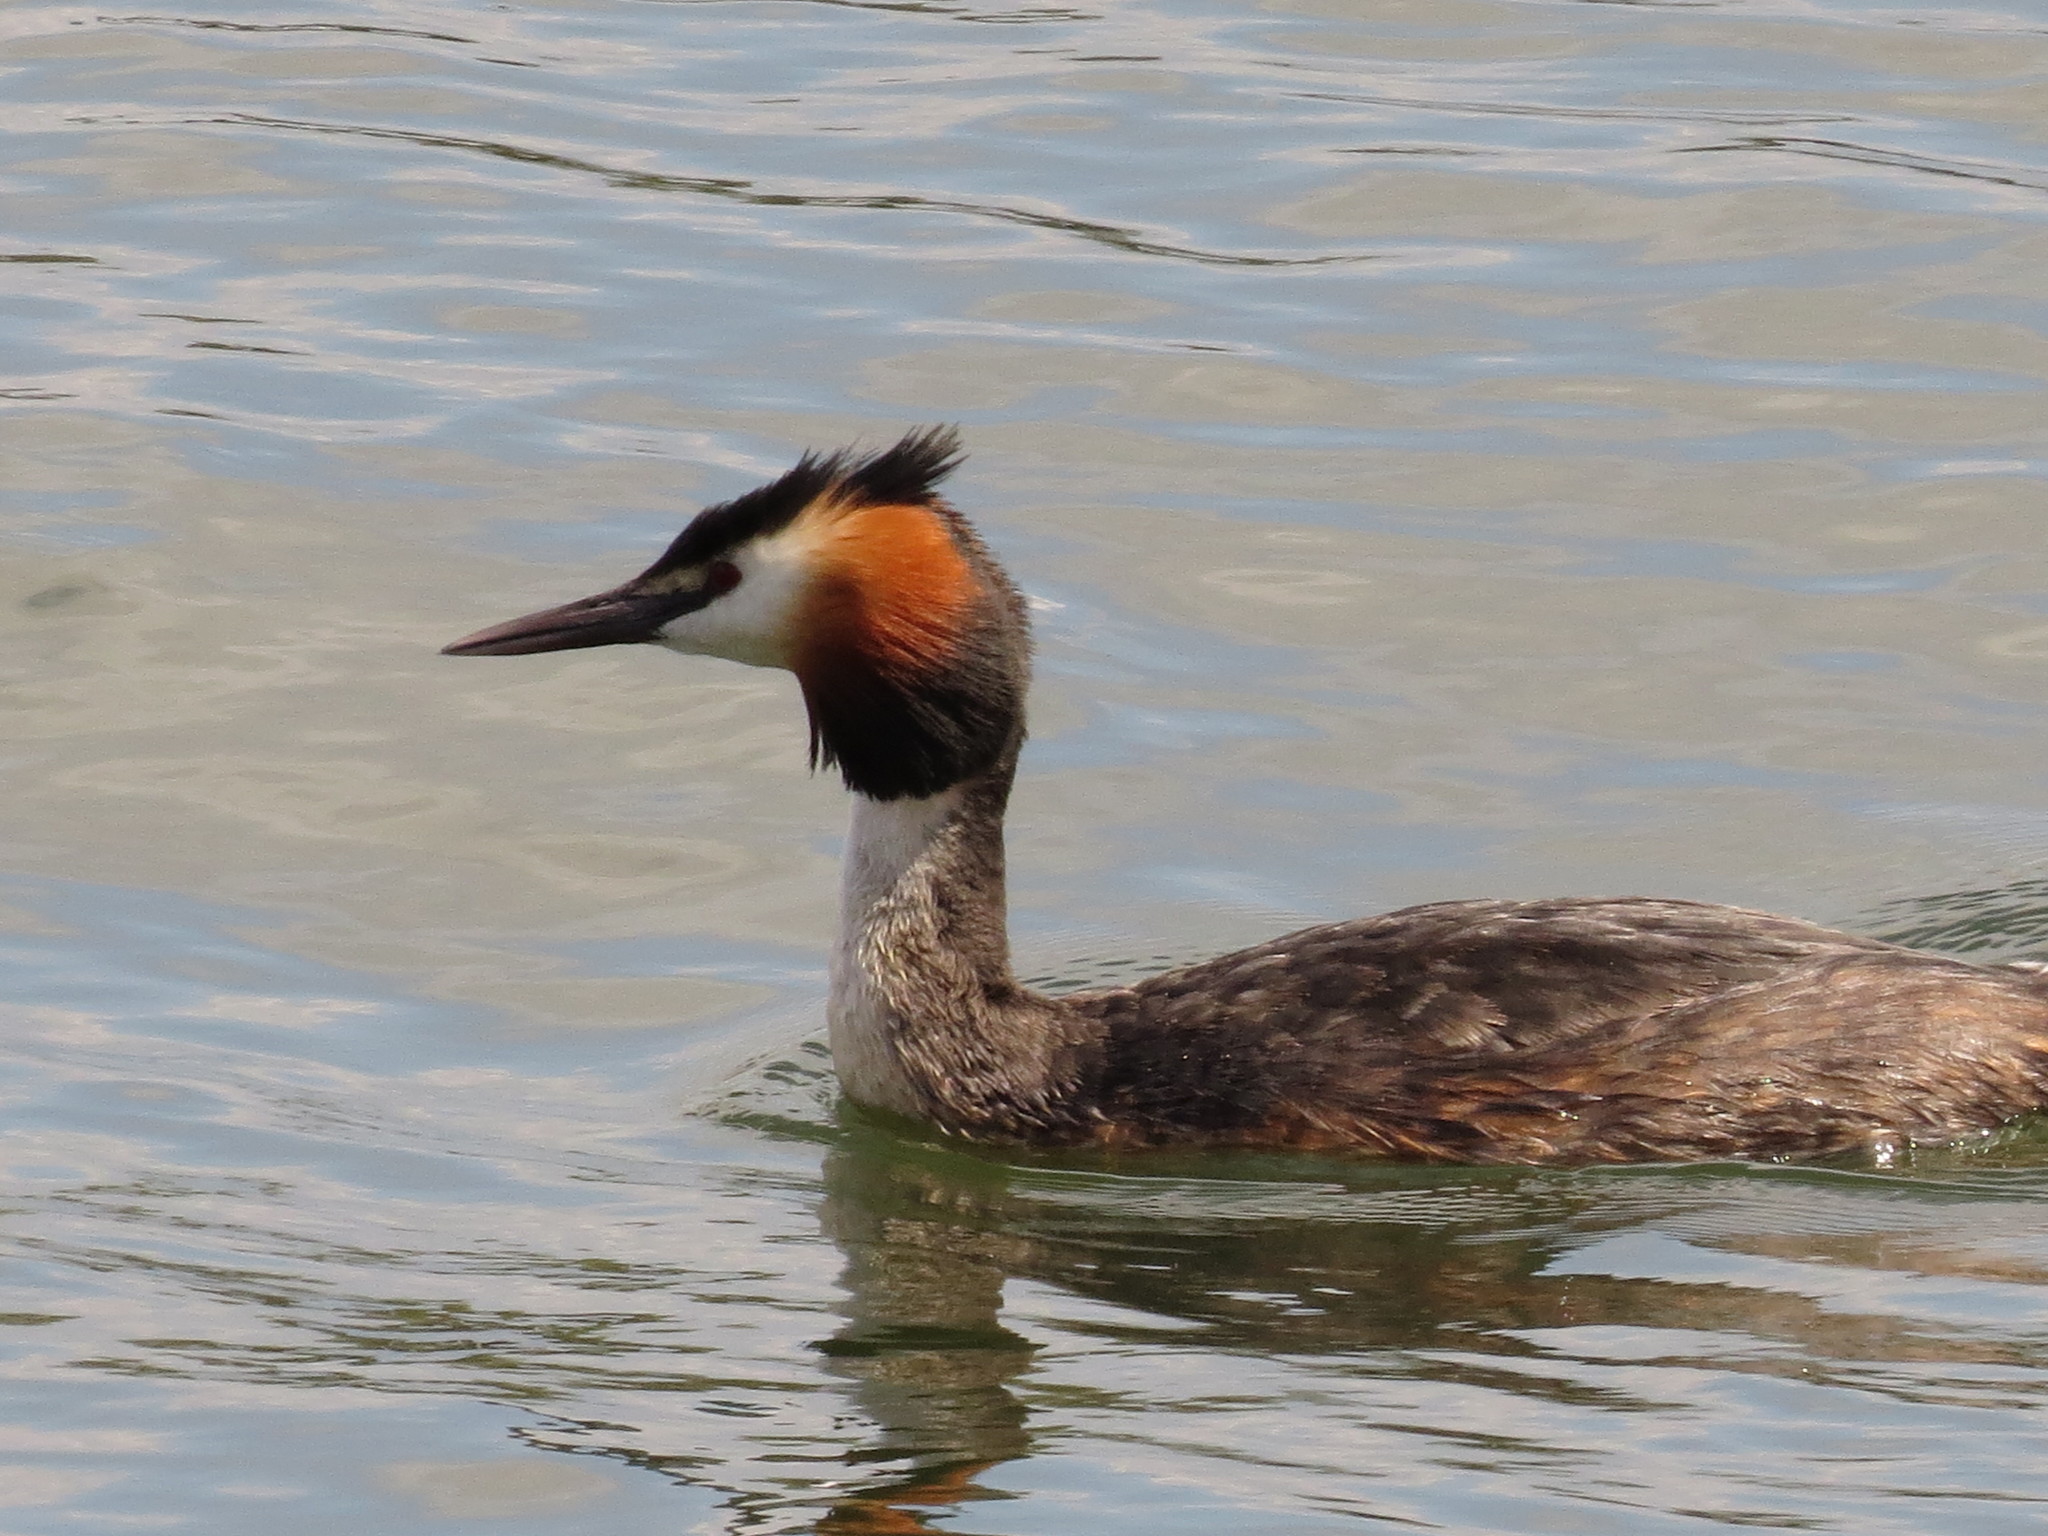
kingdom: Animalia
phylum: Chordata
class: Aves
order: Podicipediformes
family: Podicipedidae
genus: Podiceps
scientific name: Podiceps cristatus
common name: Great crested grebe
